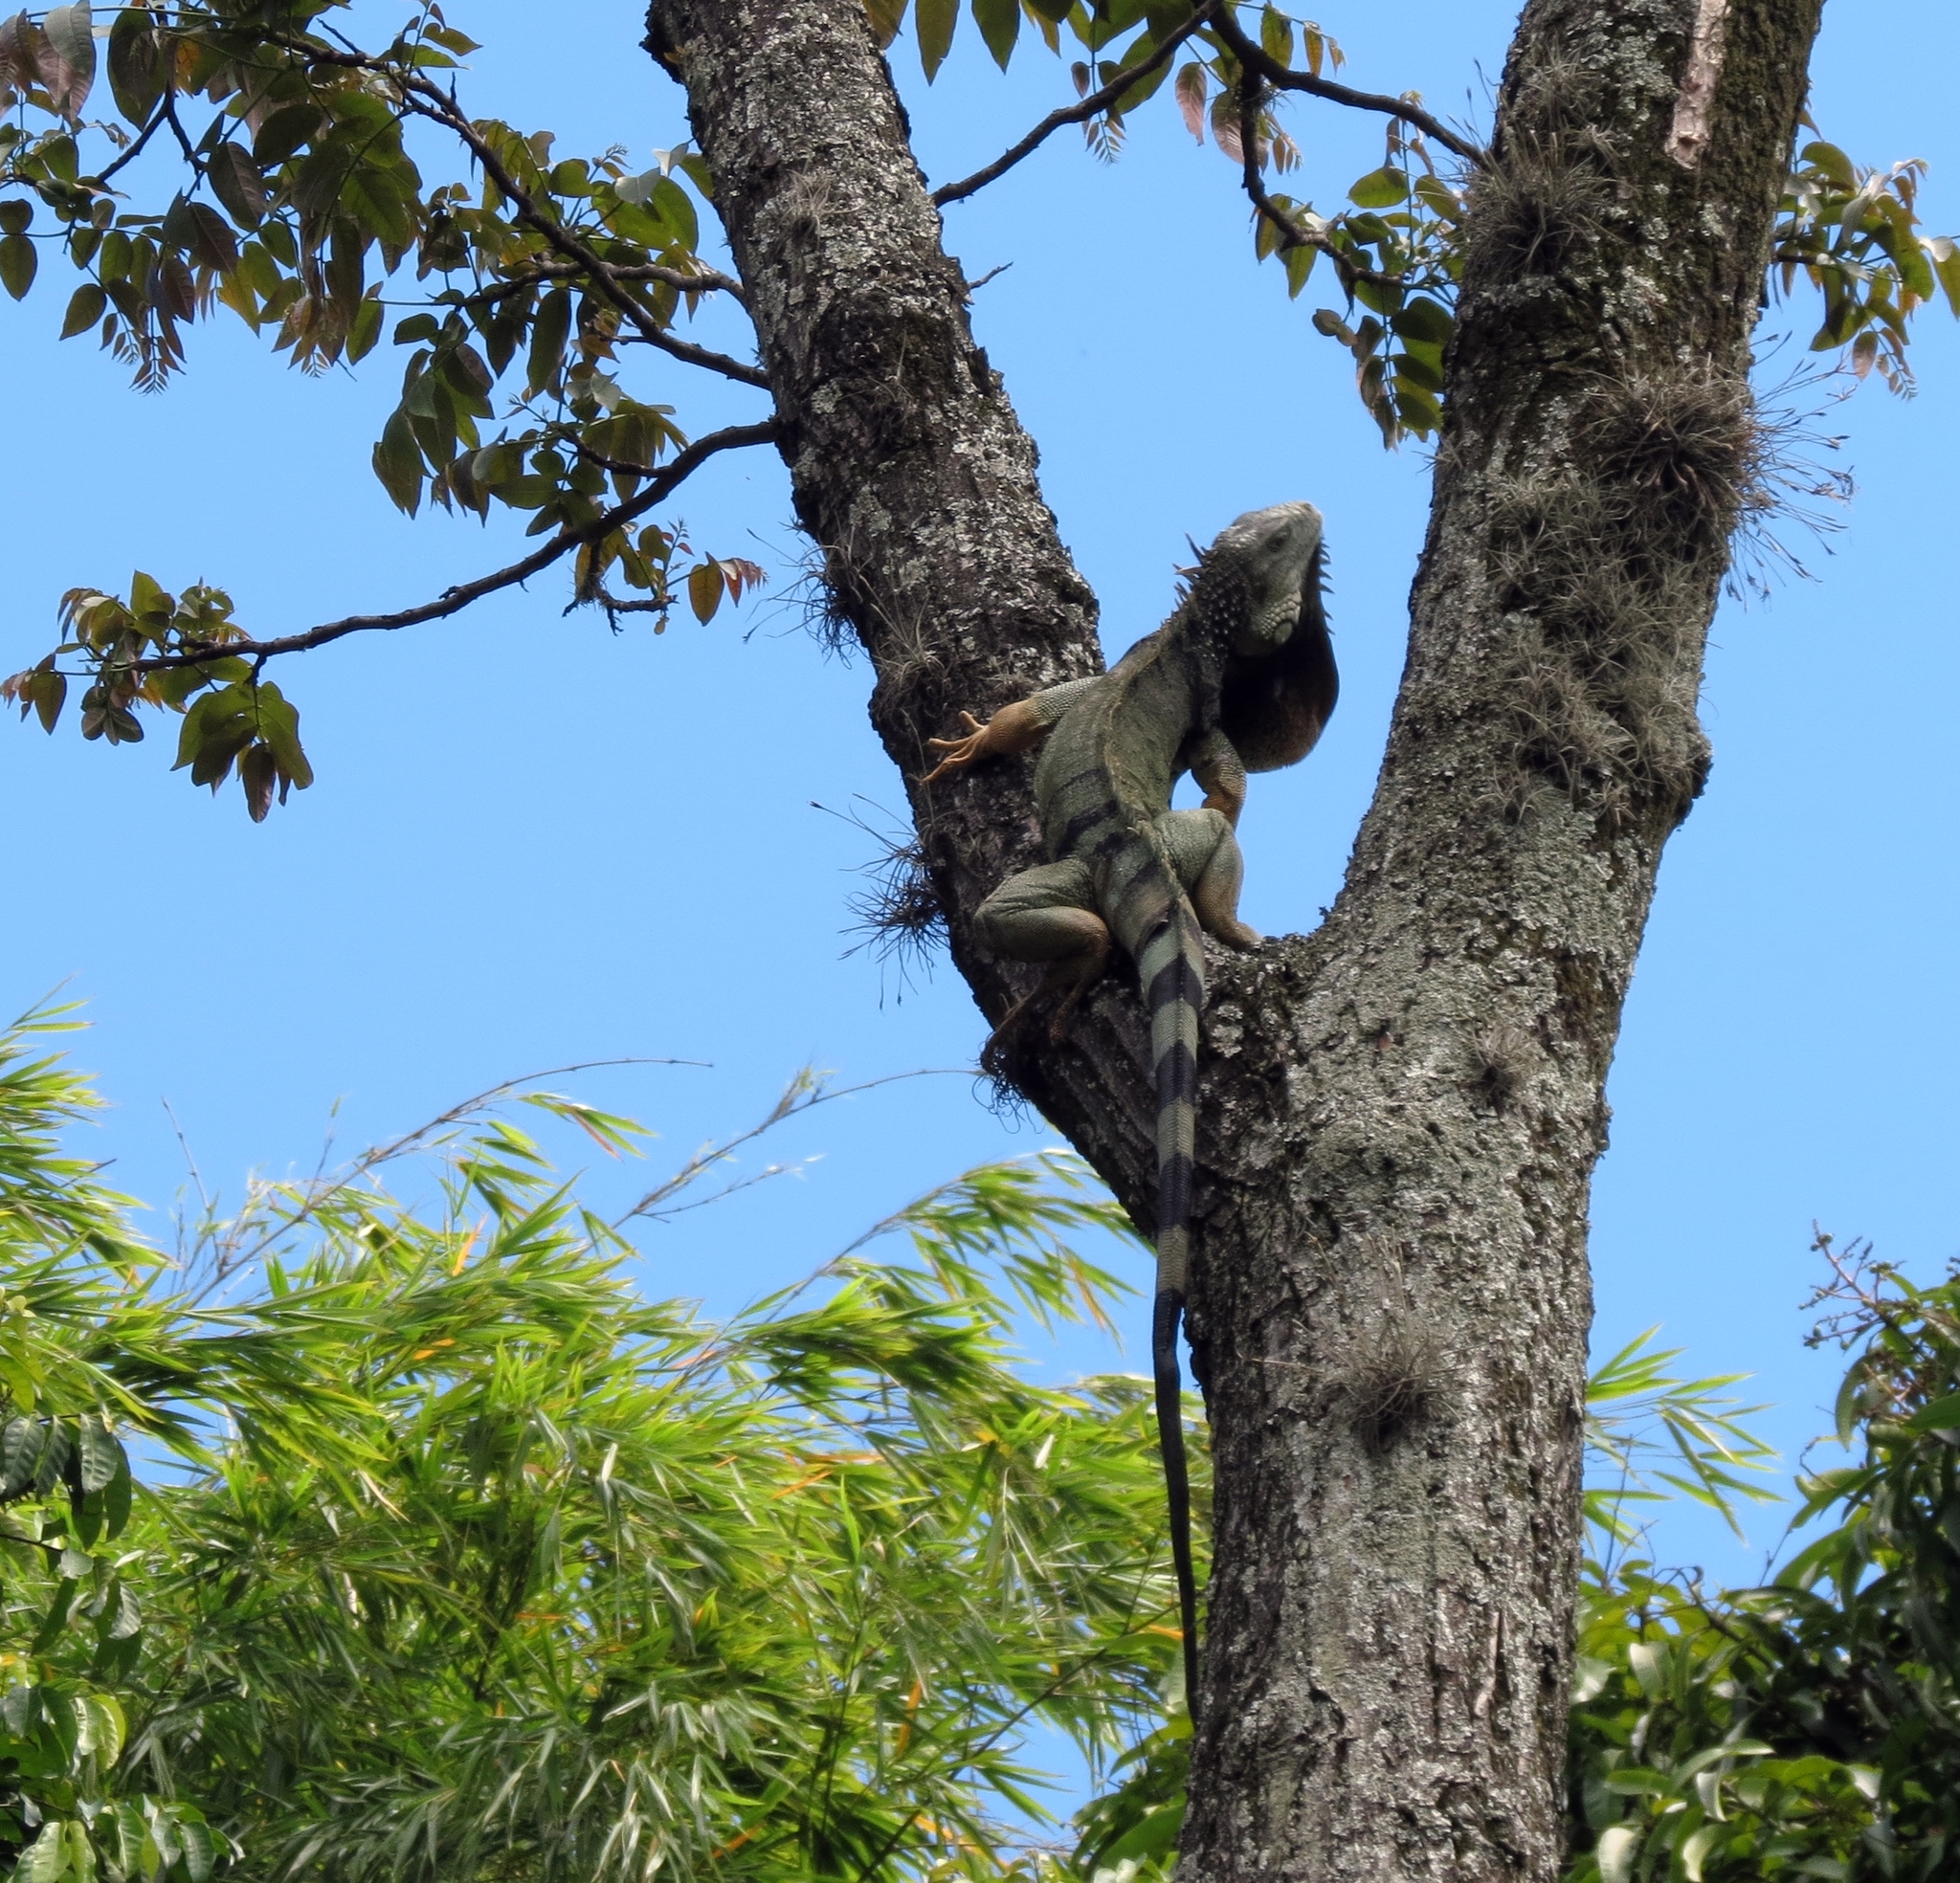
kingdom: Animalia
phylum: Chordata
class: Squamata
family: Iguanidae
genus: Iguana
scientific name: Iguana iguana
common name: Green iguana
